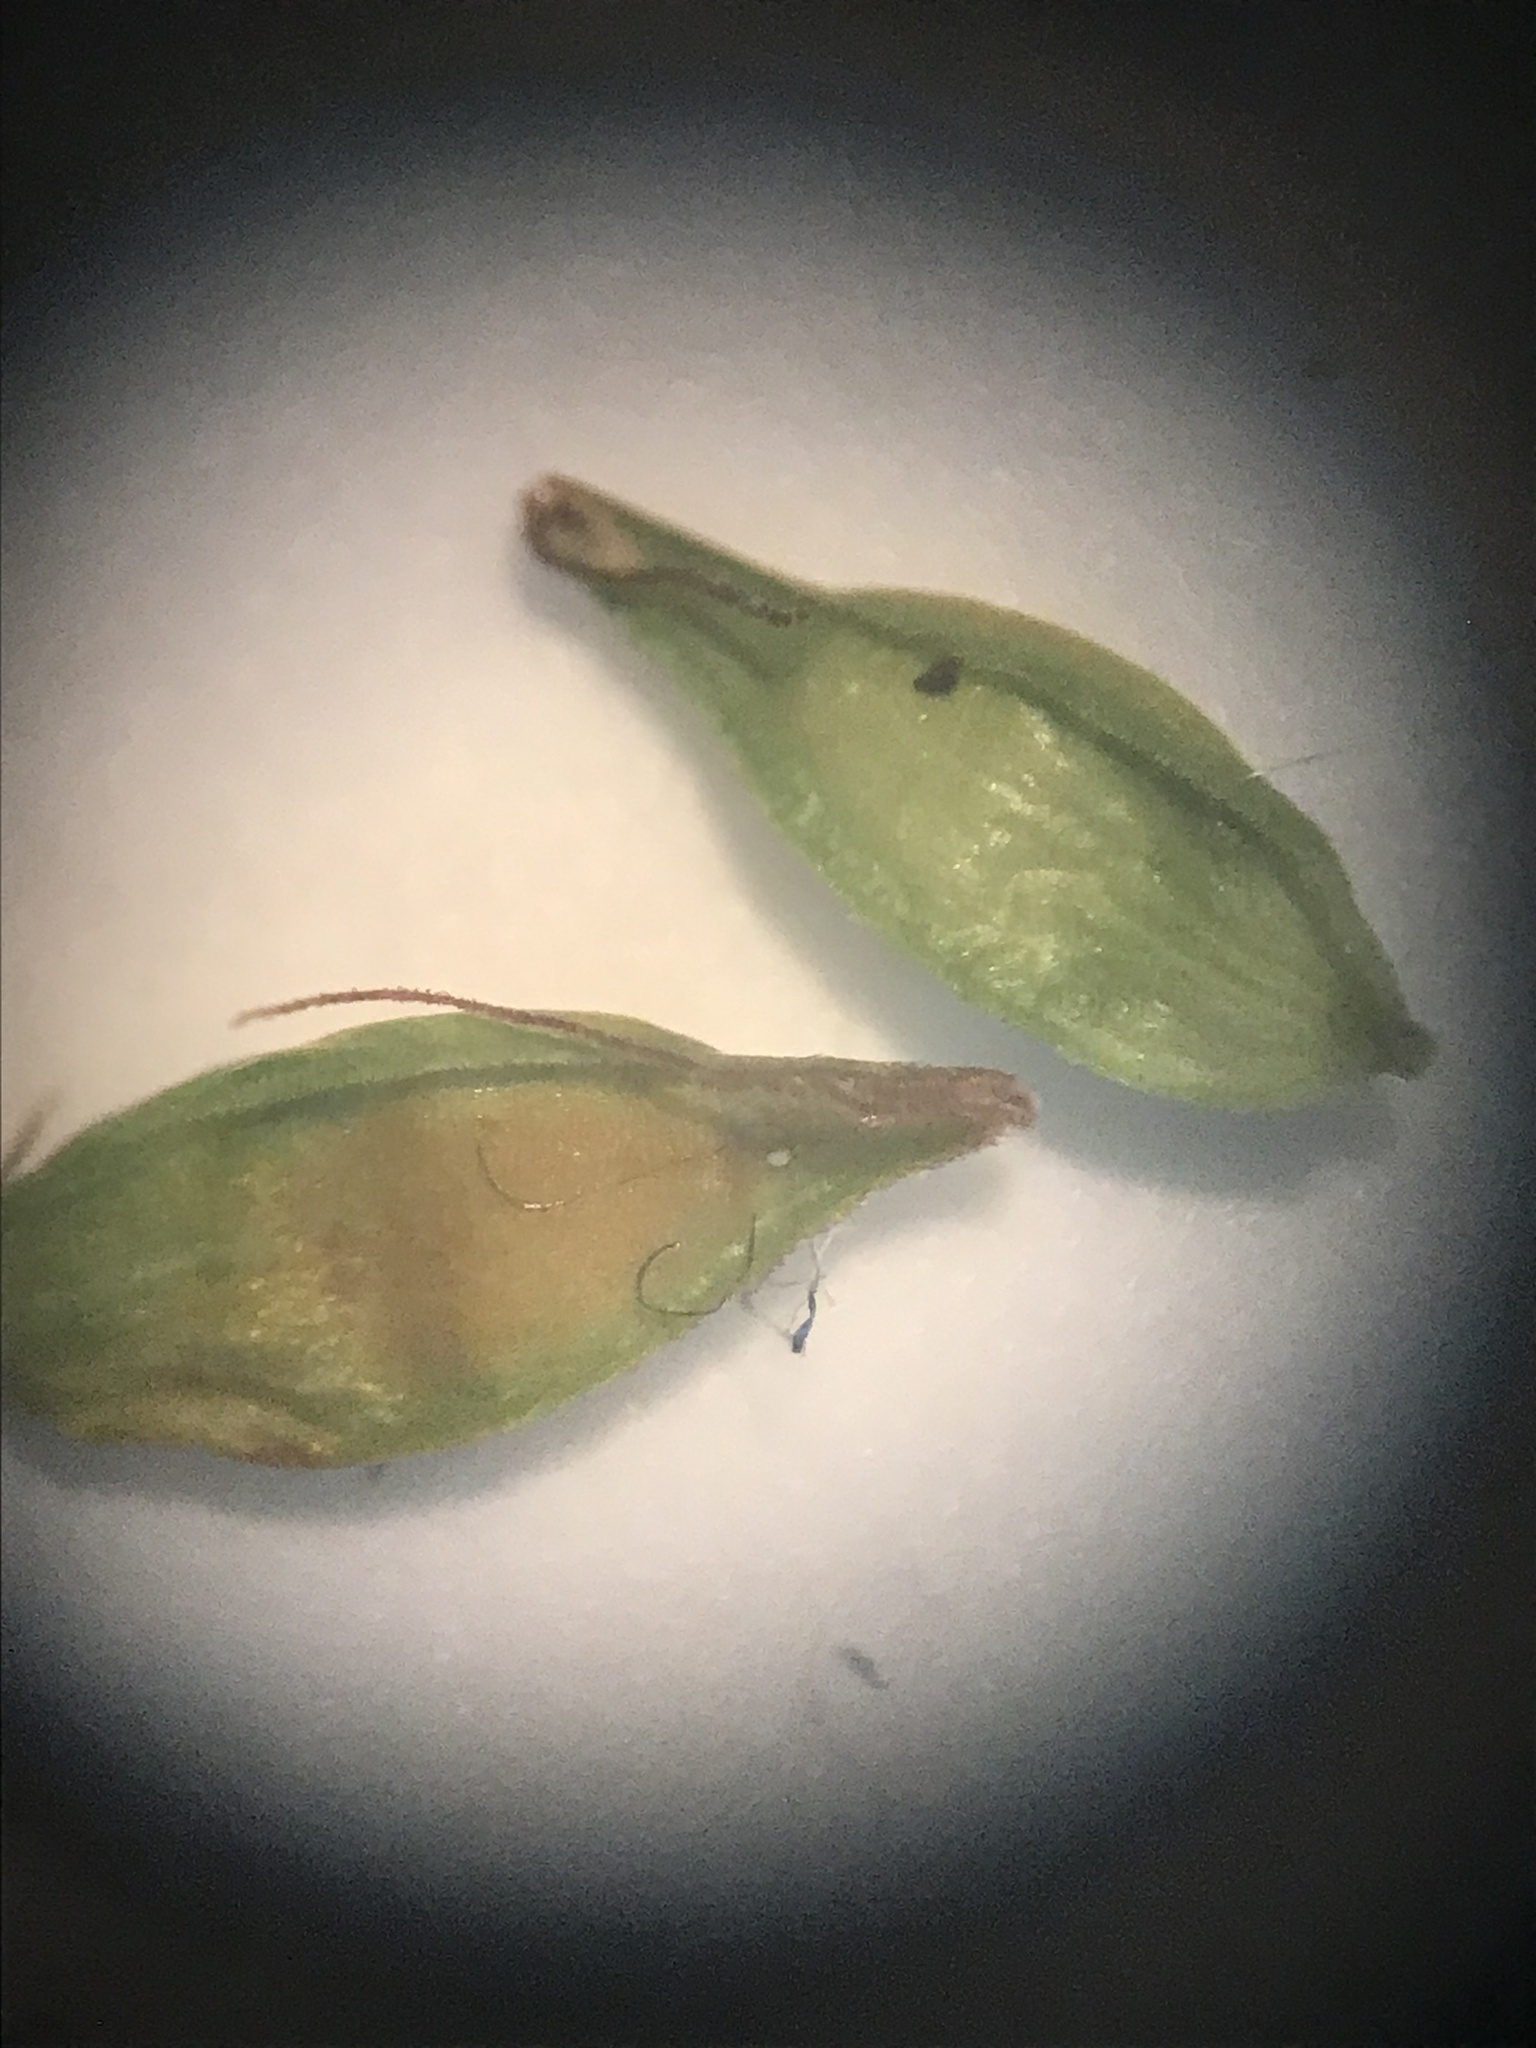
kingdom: Plantae
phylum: Tracheophyta
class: Liliopsida
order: Poales
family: Cyperaceae
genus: Carex
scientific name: Carex radiata
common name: Eastern star sedge
